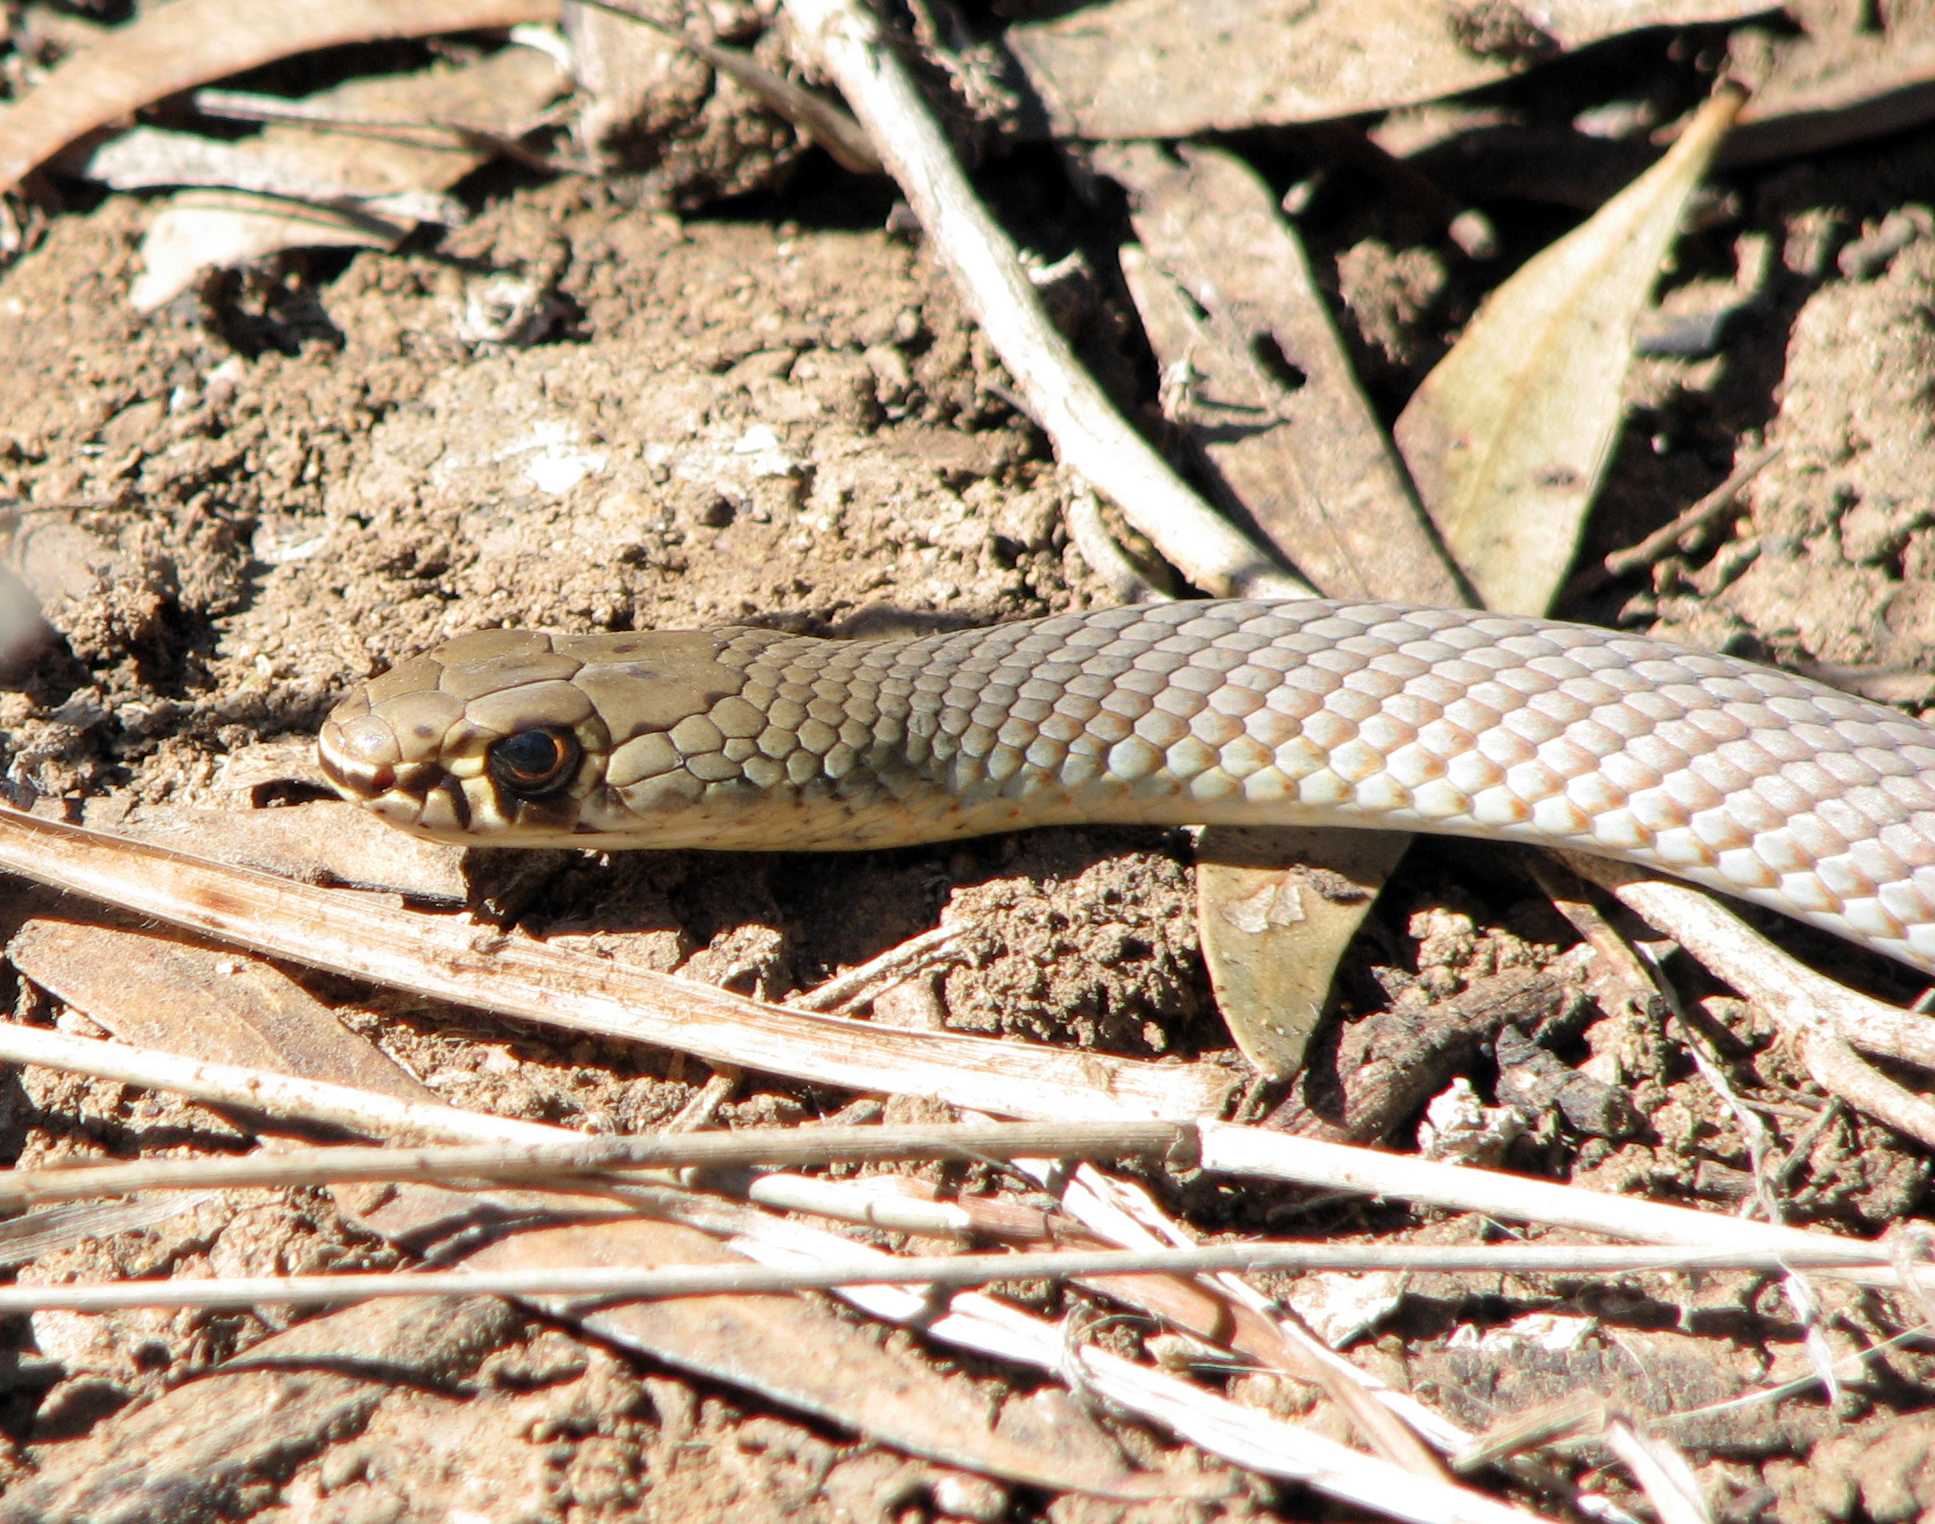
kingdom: Animalia
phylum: Chordata
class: Squamata
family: Elapidae
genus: Demansia
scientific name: Demansia psammophis
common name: Yellow-faced whip snake
